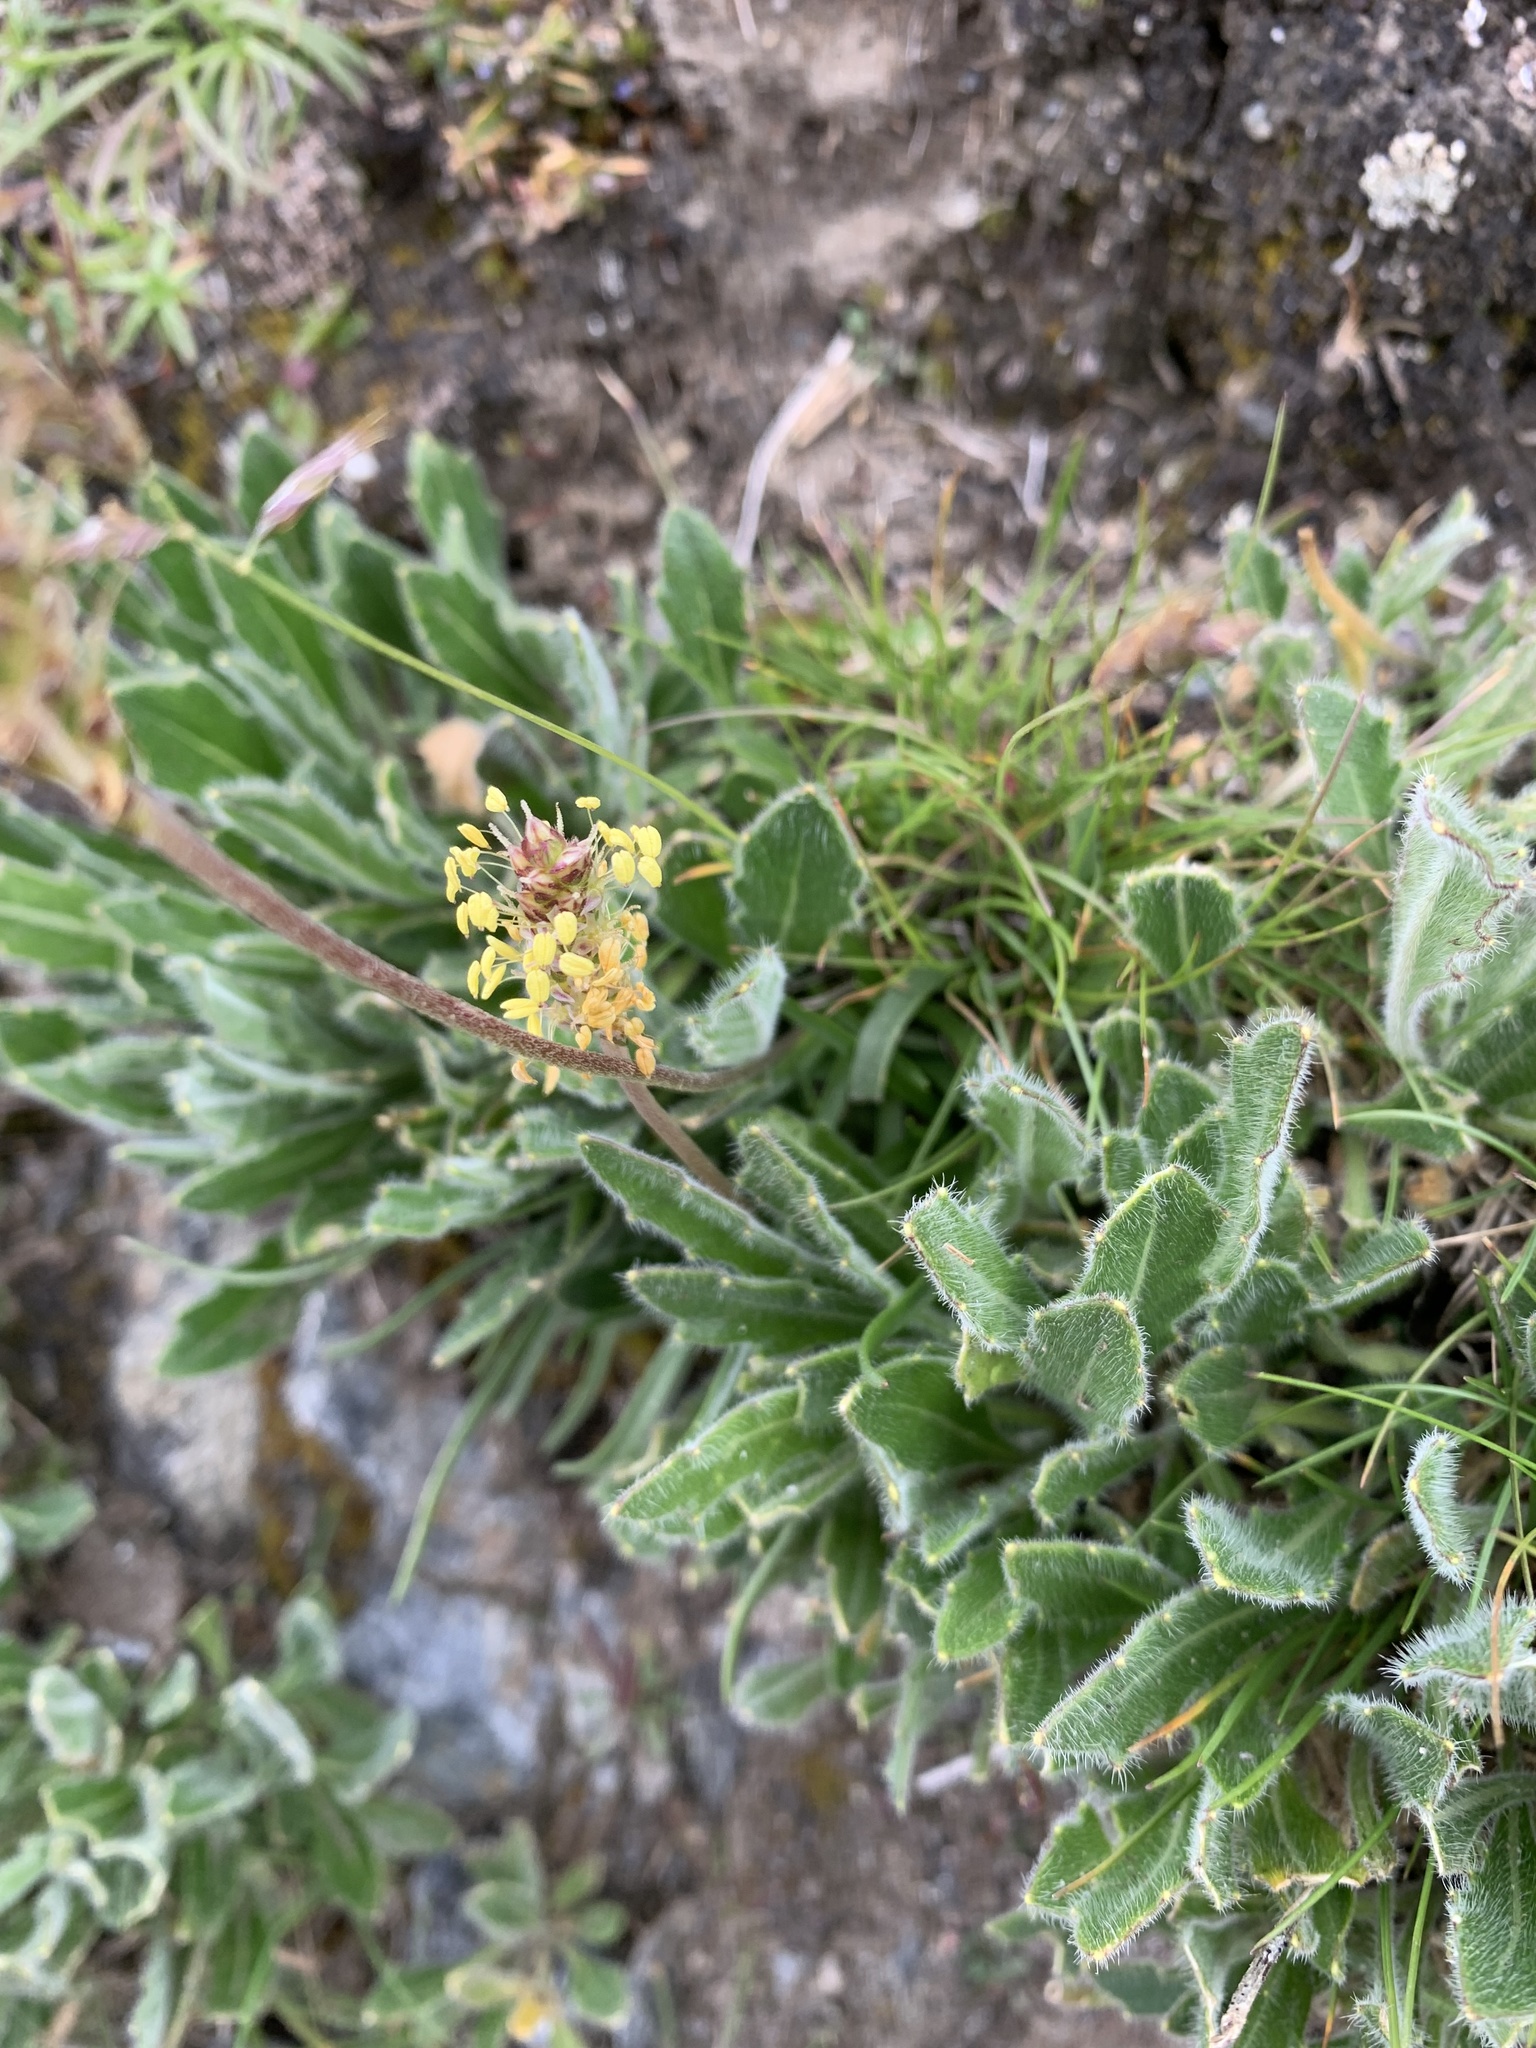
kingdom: Plantae
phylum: Tracheophyta
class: Magnoliopsida
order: Brassicales
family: Brassicaceae
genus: Biscutella
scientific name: Biscutella laevigata
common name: Buckler mustard
